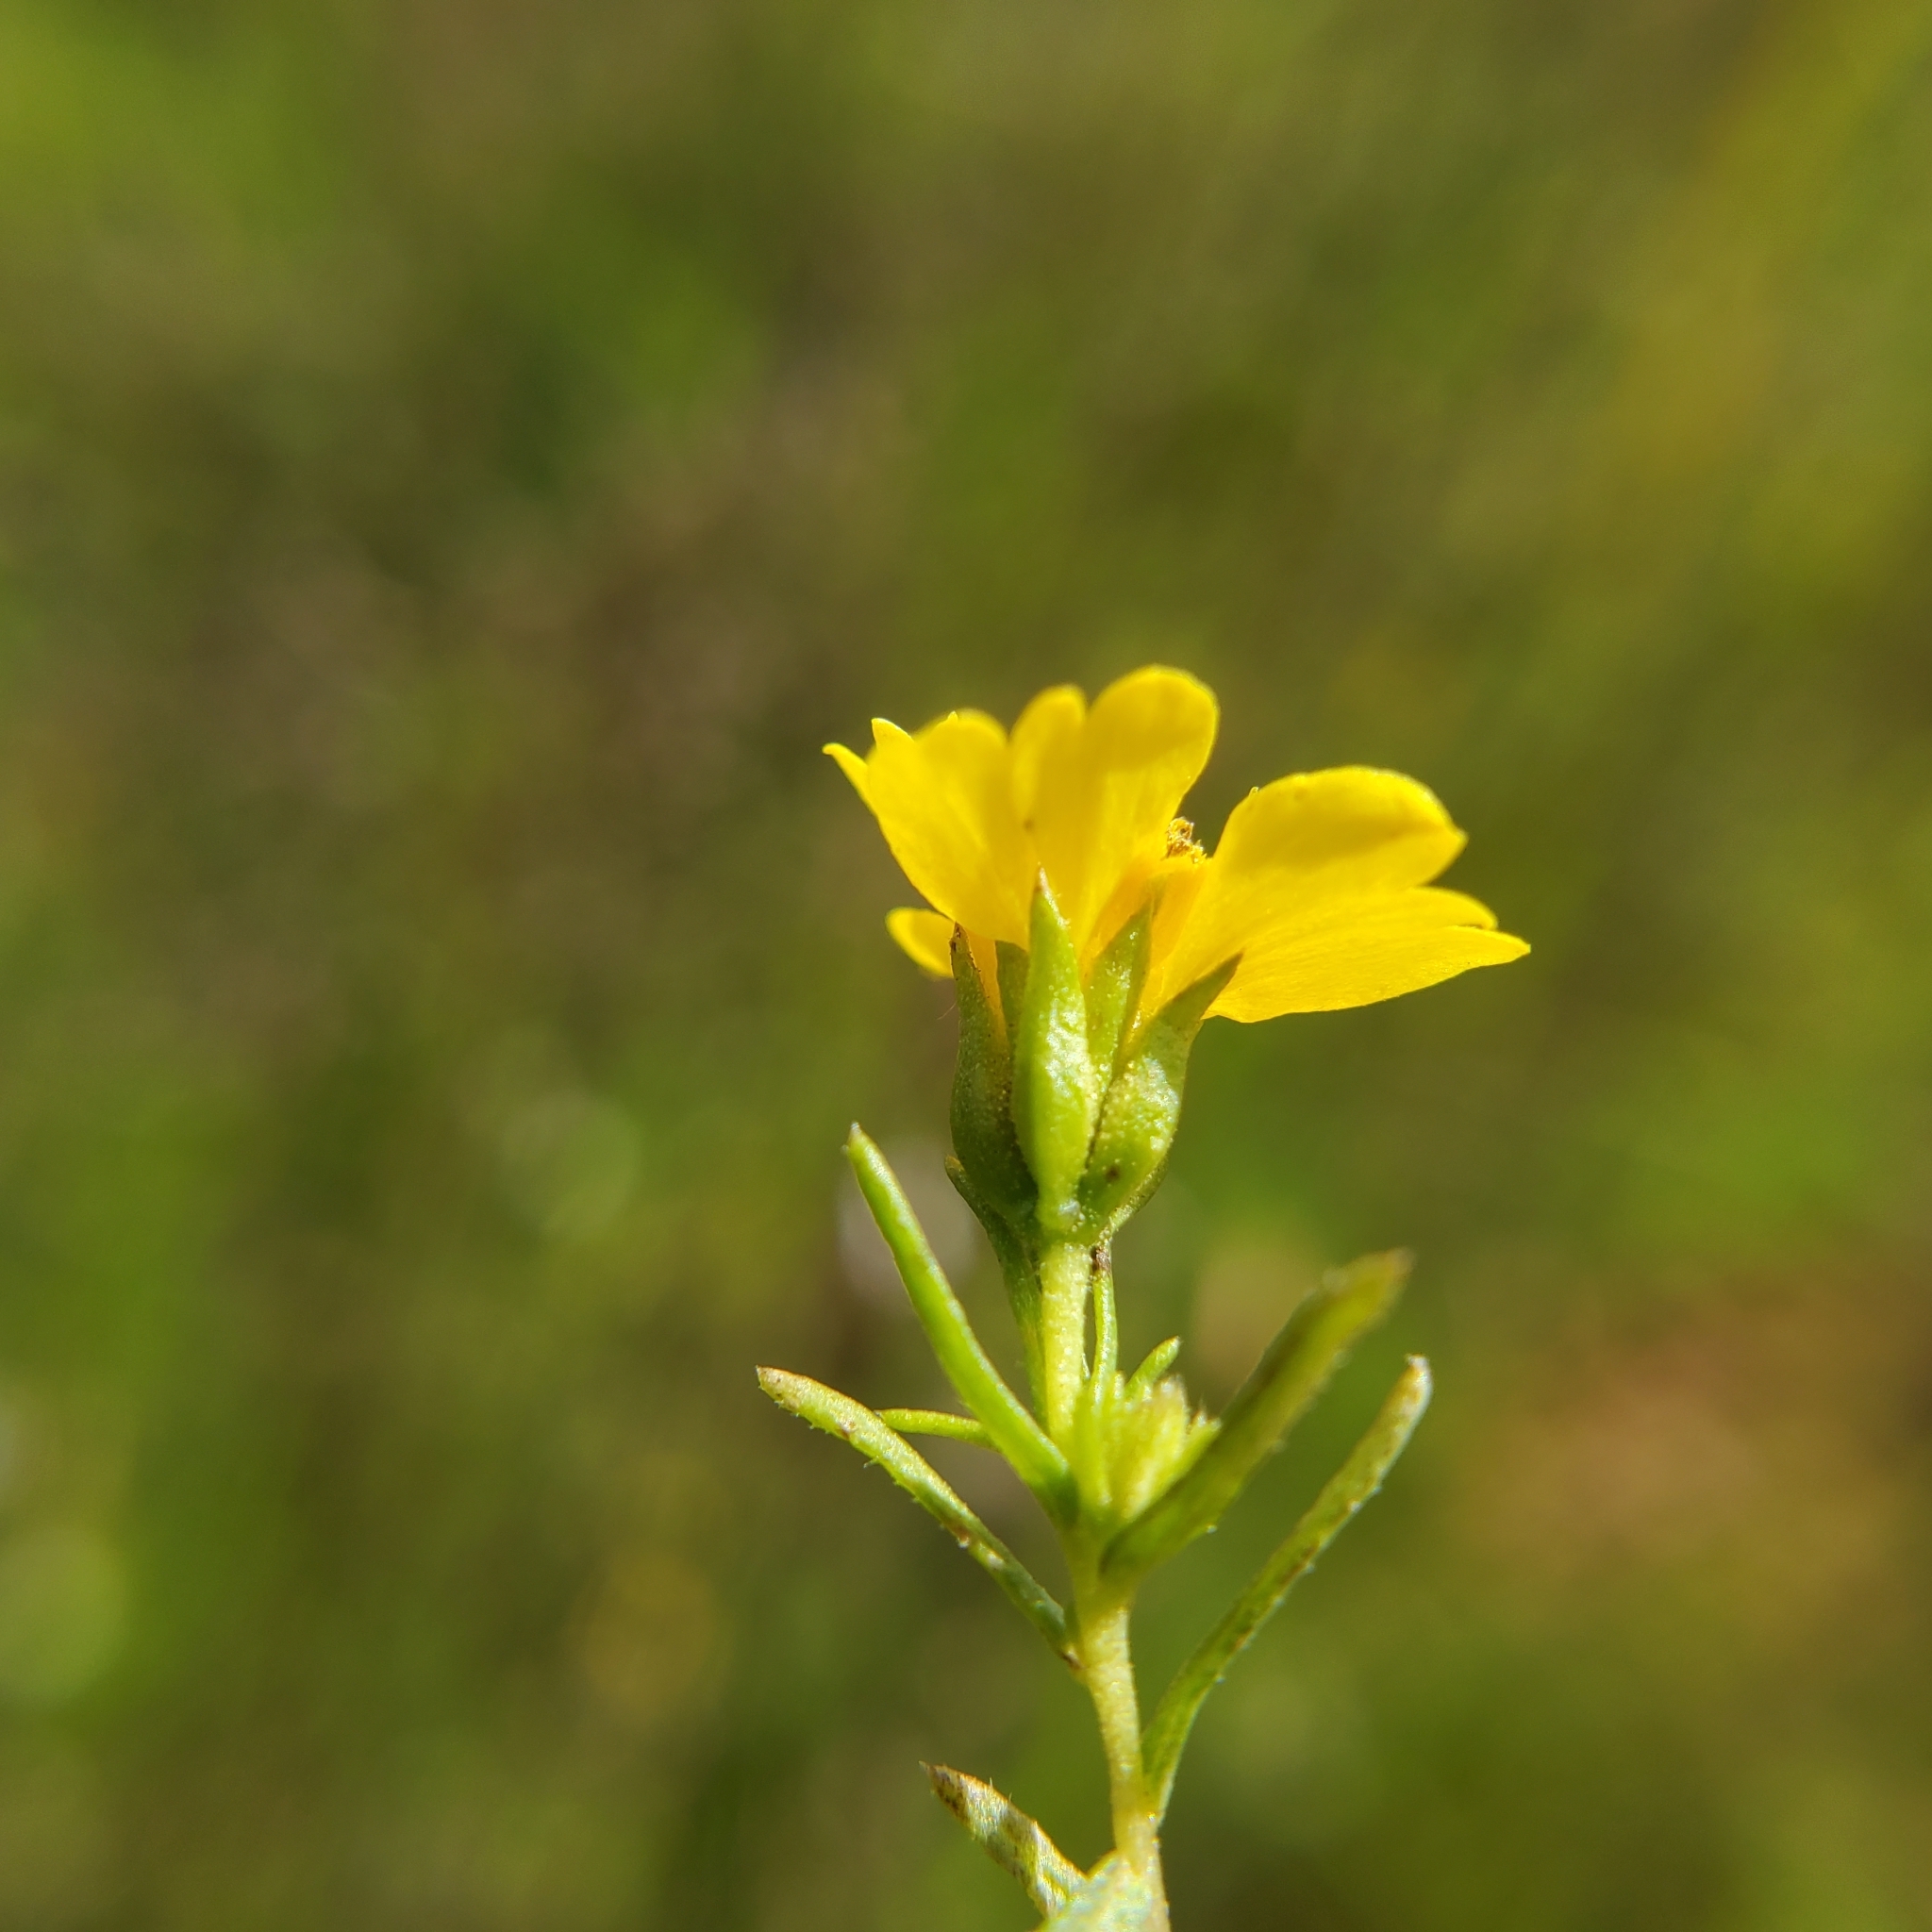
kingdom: Plantae
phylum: Tracheophyta
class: Magnoliopsida
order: Asterales
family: Asteraceae
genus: Deinandra
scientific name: Deinandra fasciculata
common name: Clustered tarweed
